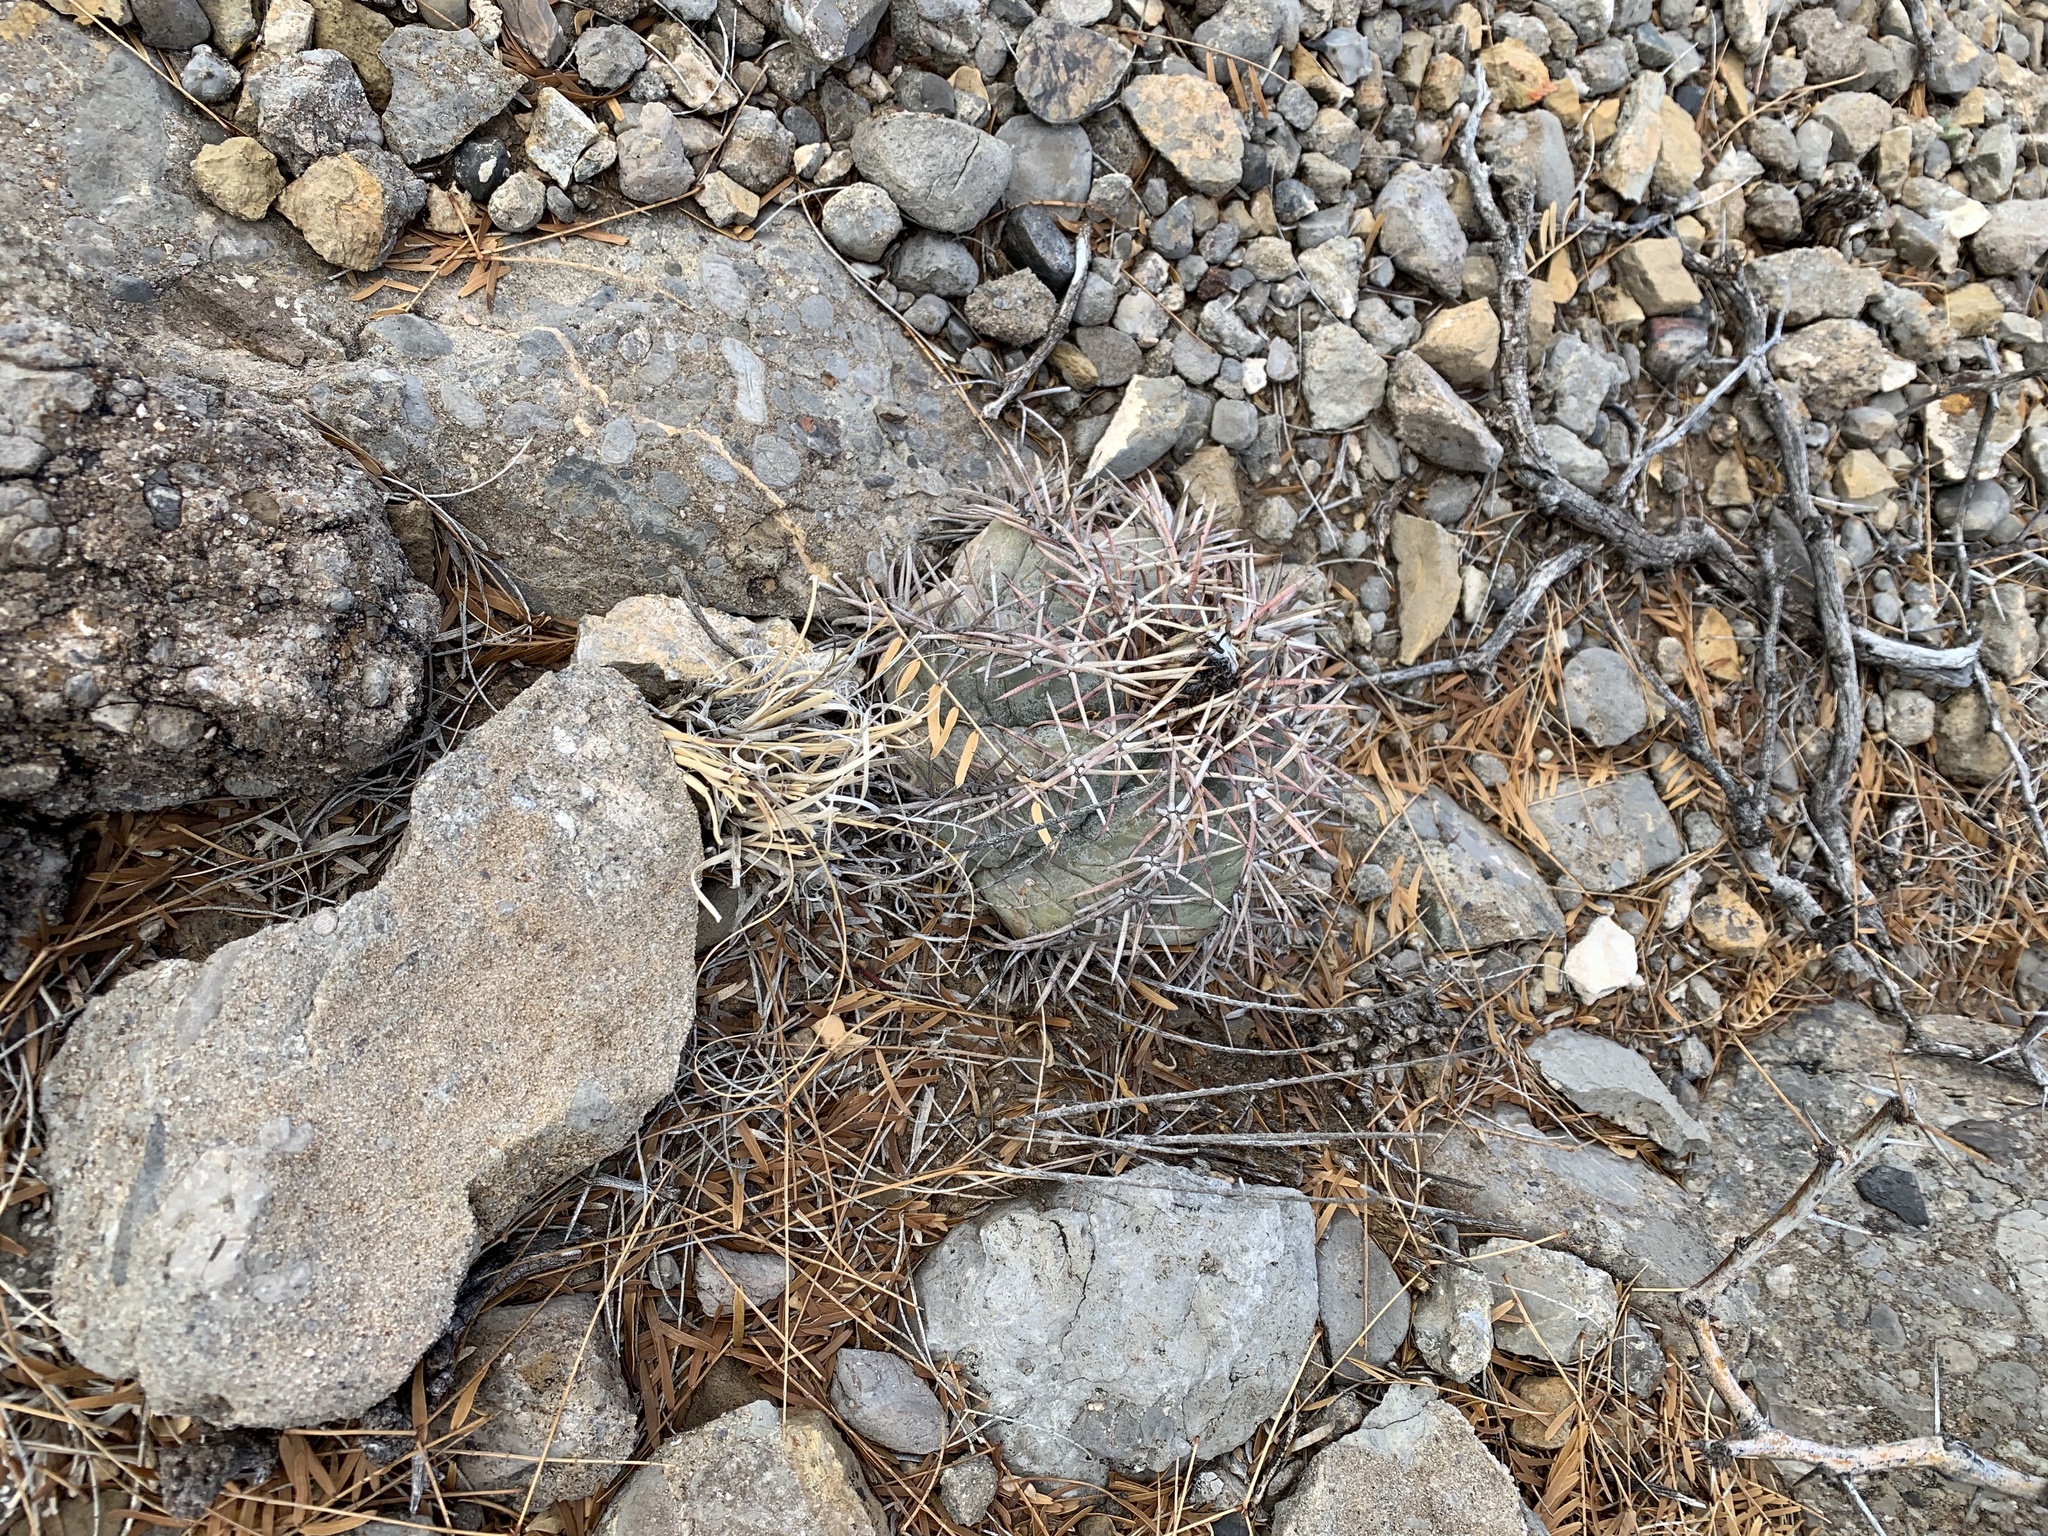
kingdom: Plantae
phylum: Tracheophyta
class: Magnoliopsida
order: Caryophyllales
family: Cactaceae
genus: Echinocactus
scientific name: Echinocactus horizonthalonius
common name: Devilshead
